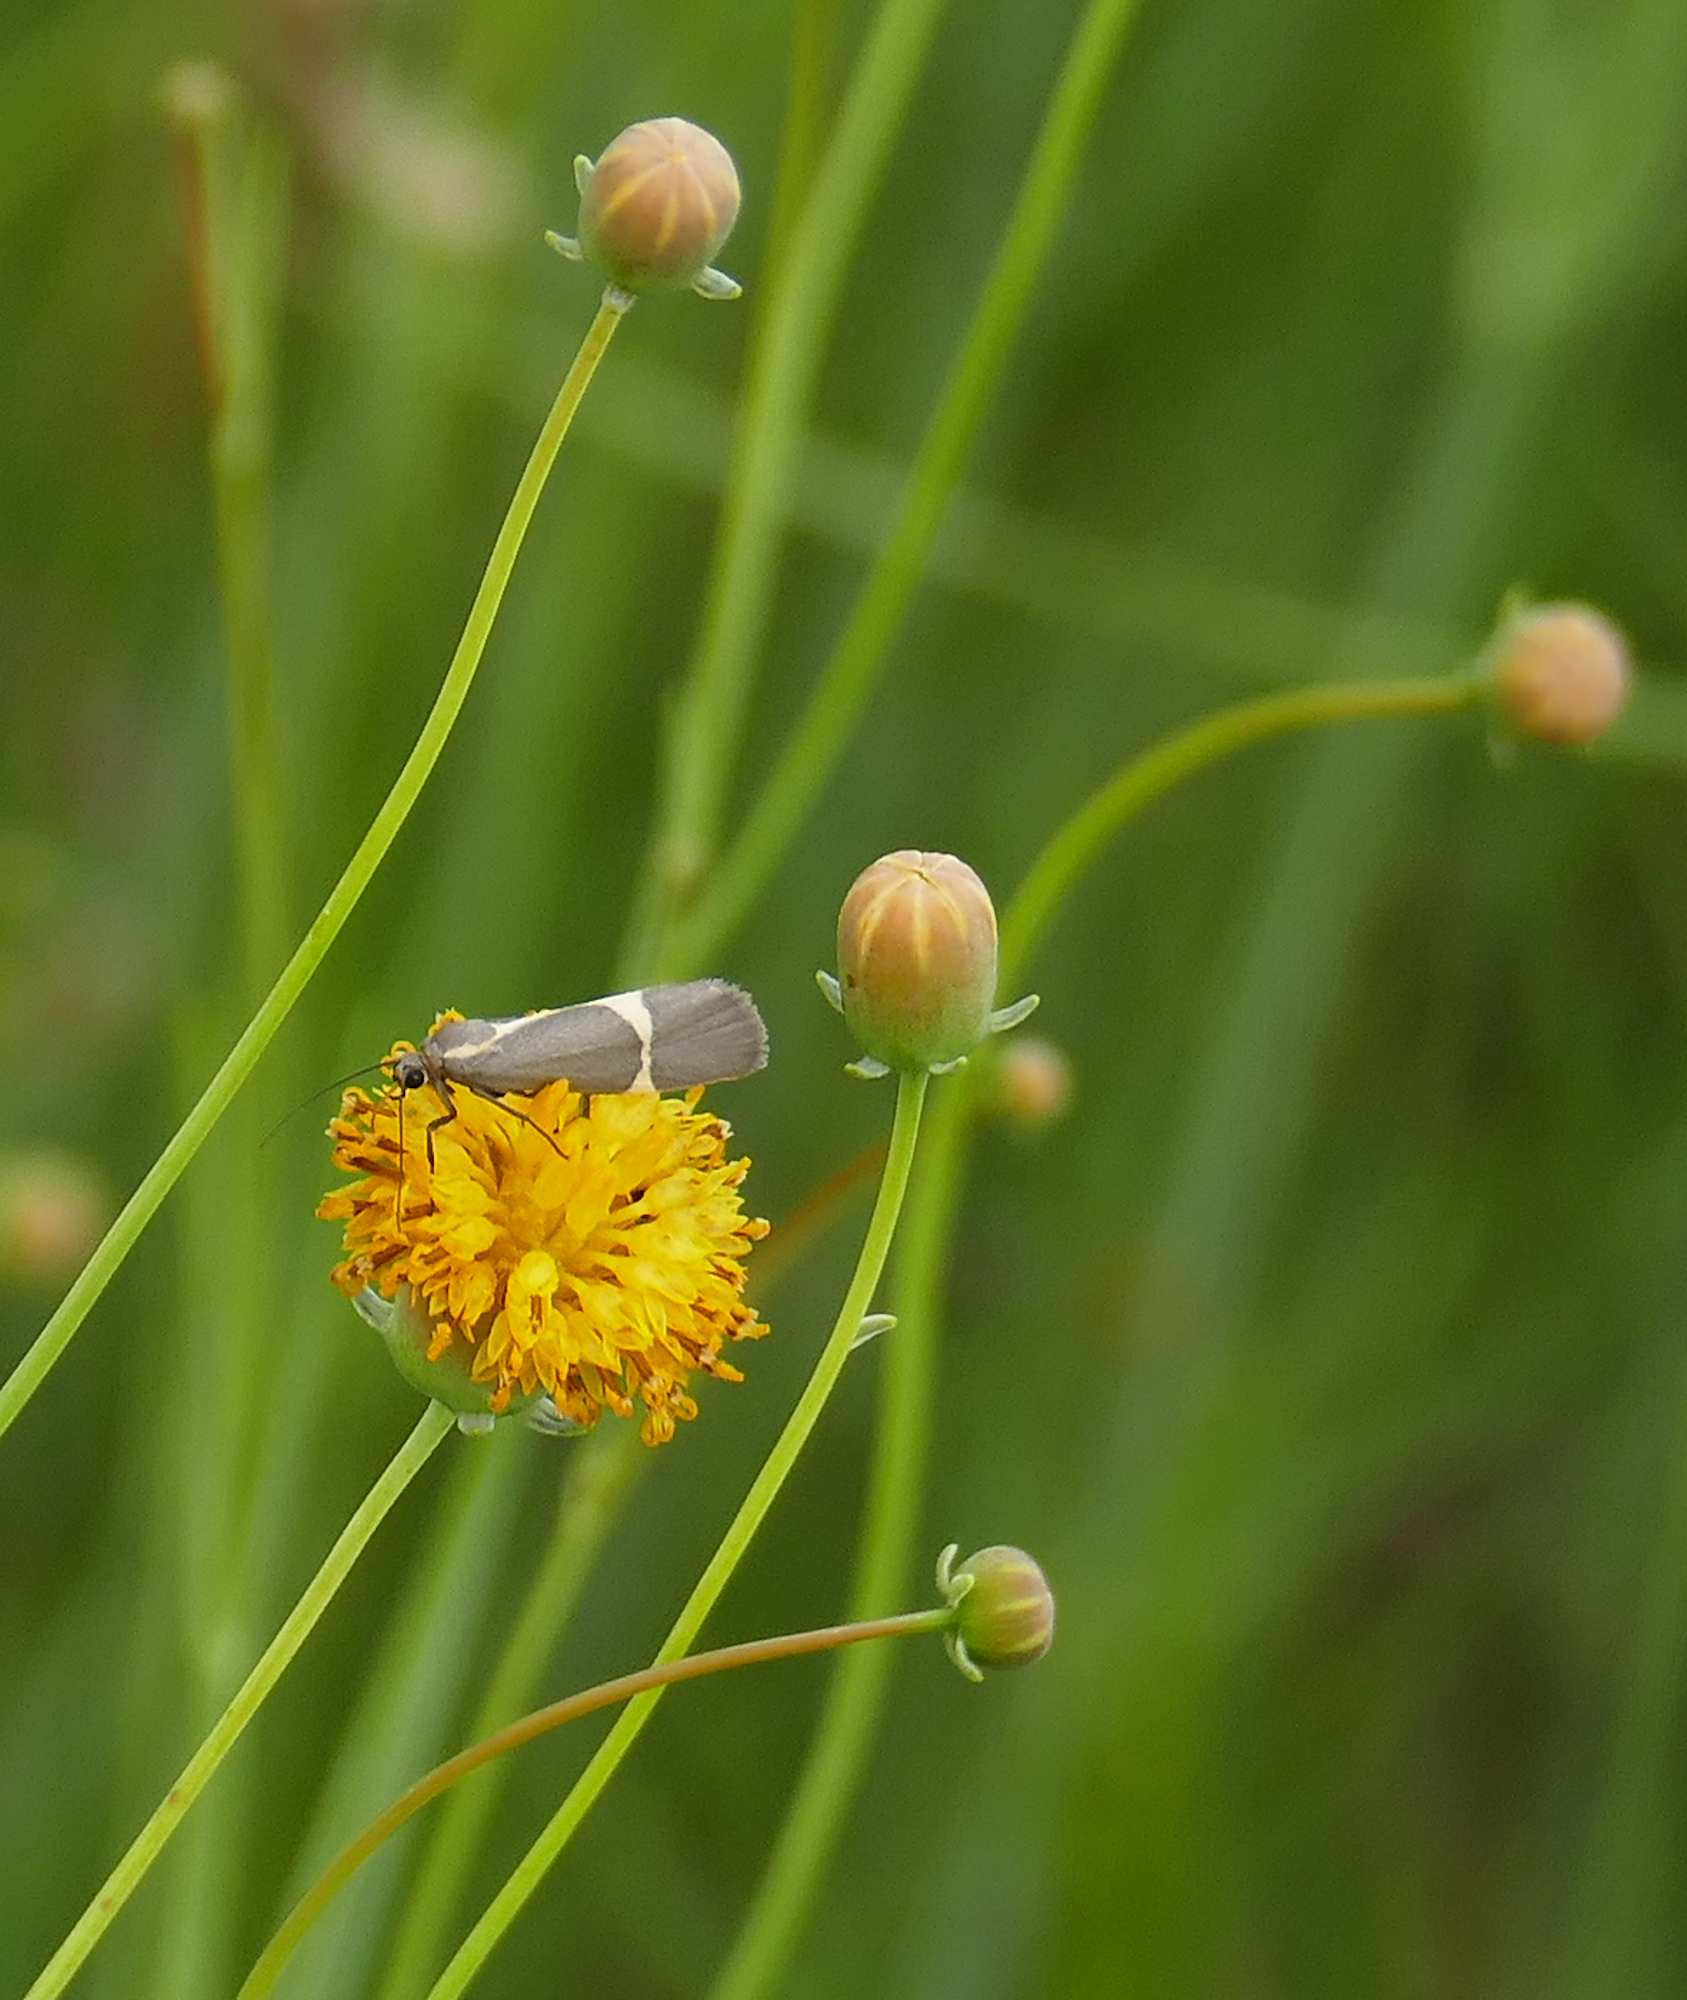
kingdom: Plantae
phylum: Tracheophyta
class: Magnoliopsida
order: Asterales
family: Asteraceae
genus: Thelesperma
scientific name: Thelesperma megapotamicum
